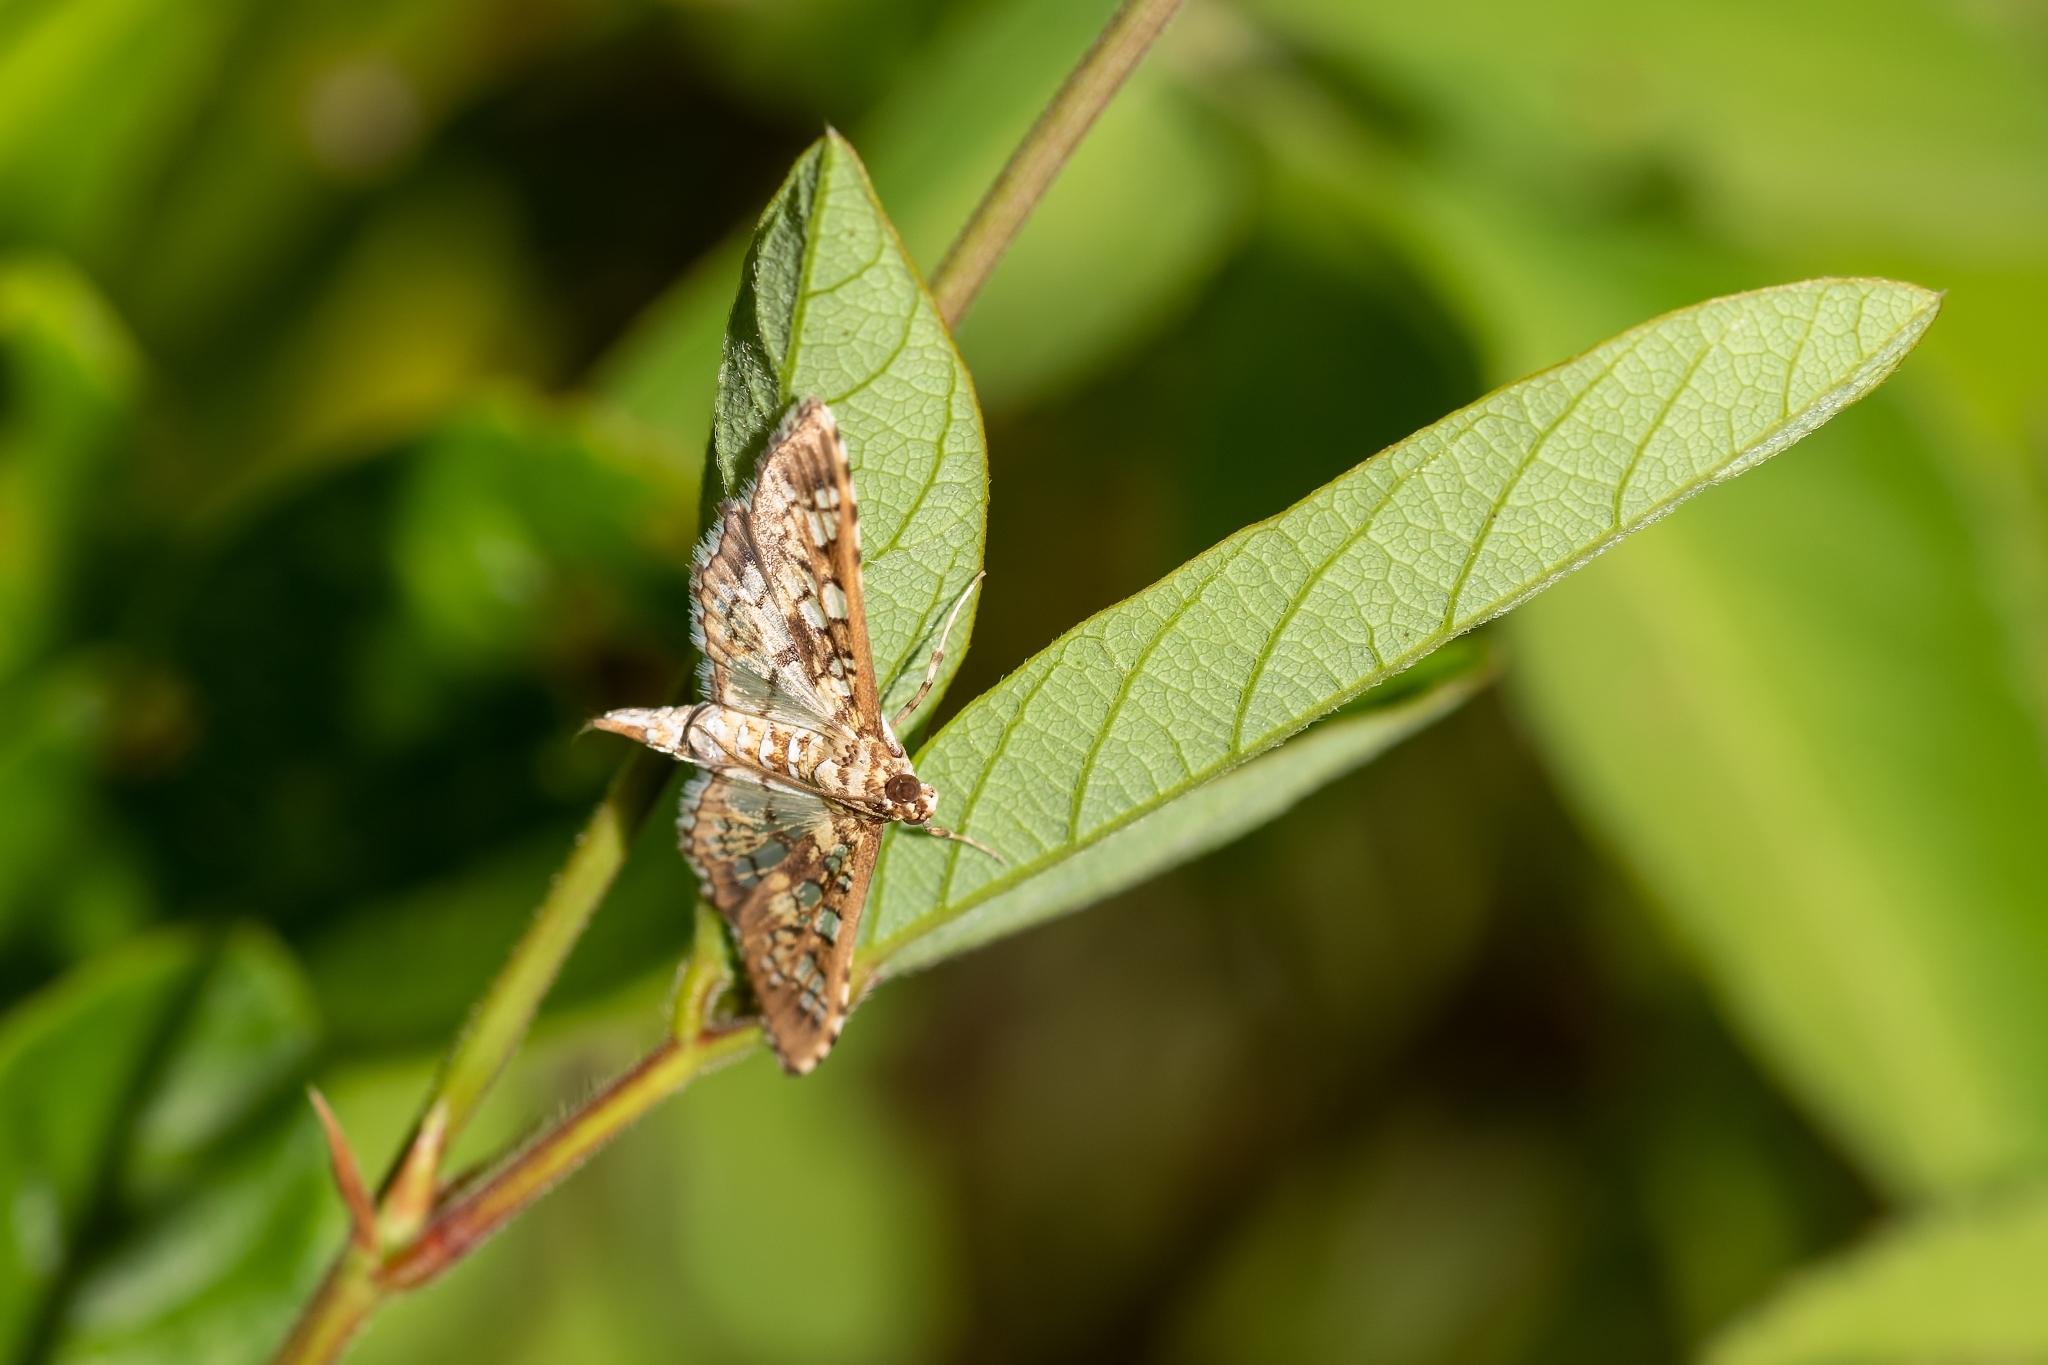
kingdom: Animalia
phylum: Arthropoda
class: Insecta
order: Lepidoptera
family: Crambidae
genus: Samea
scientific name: Samea ecclesialis
